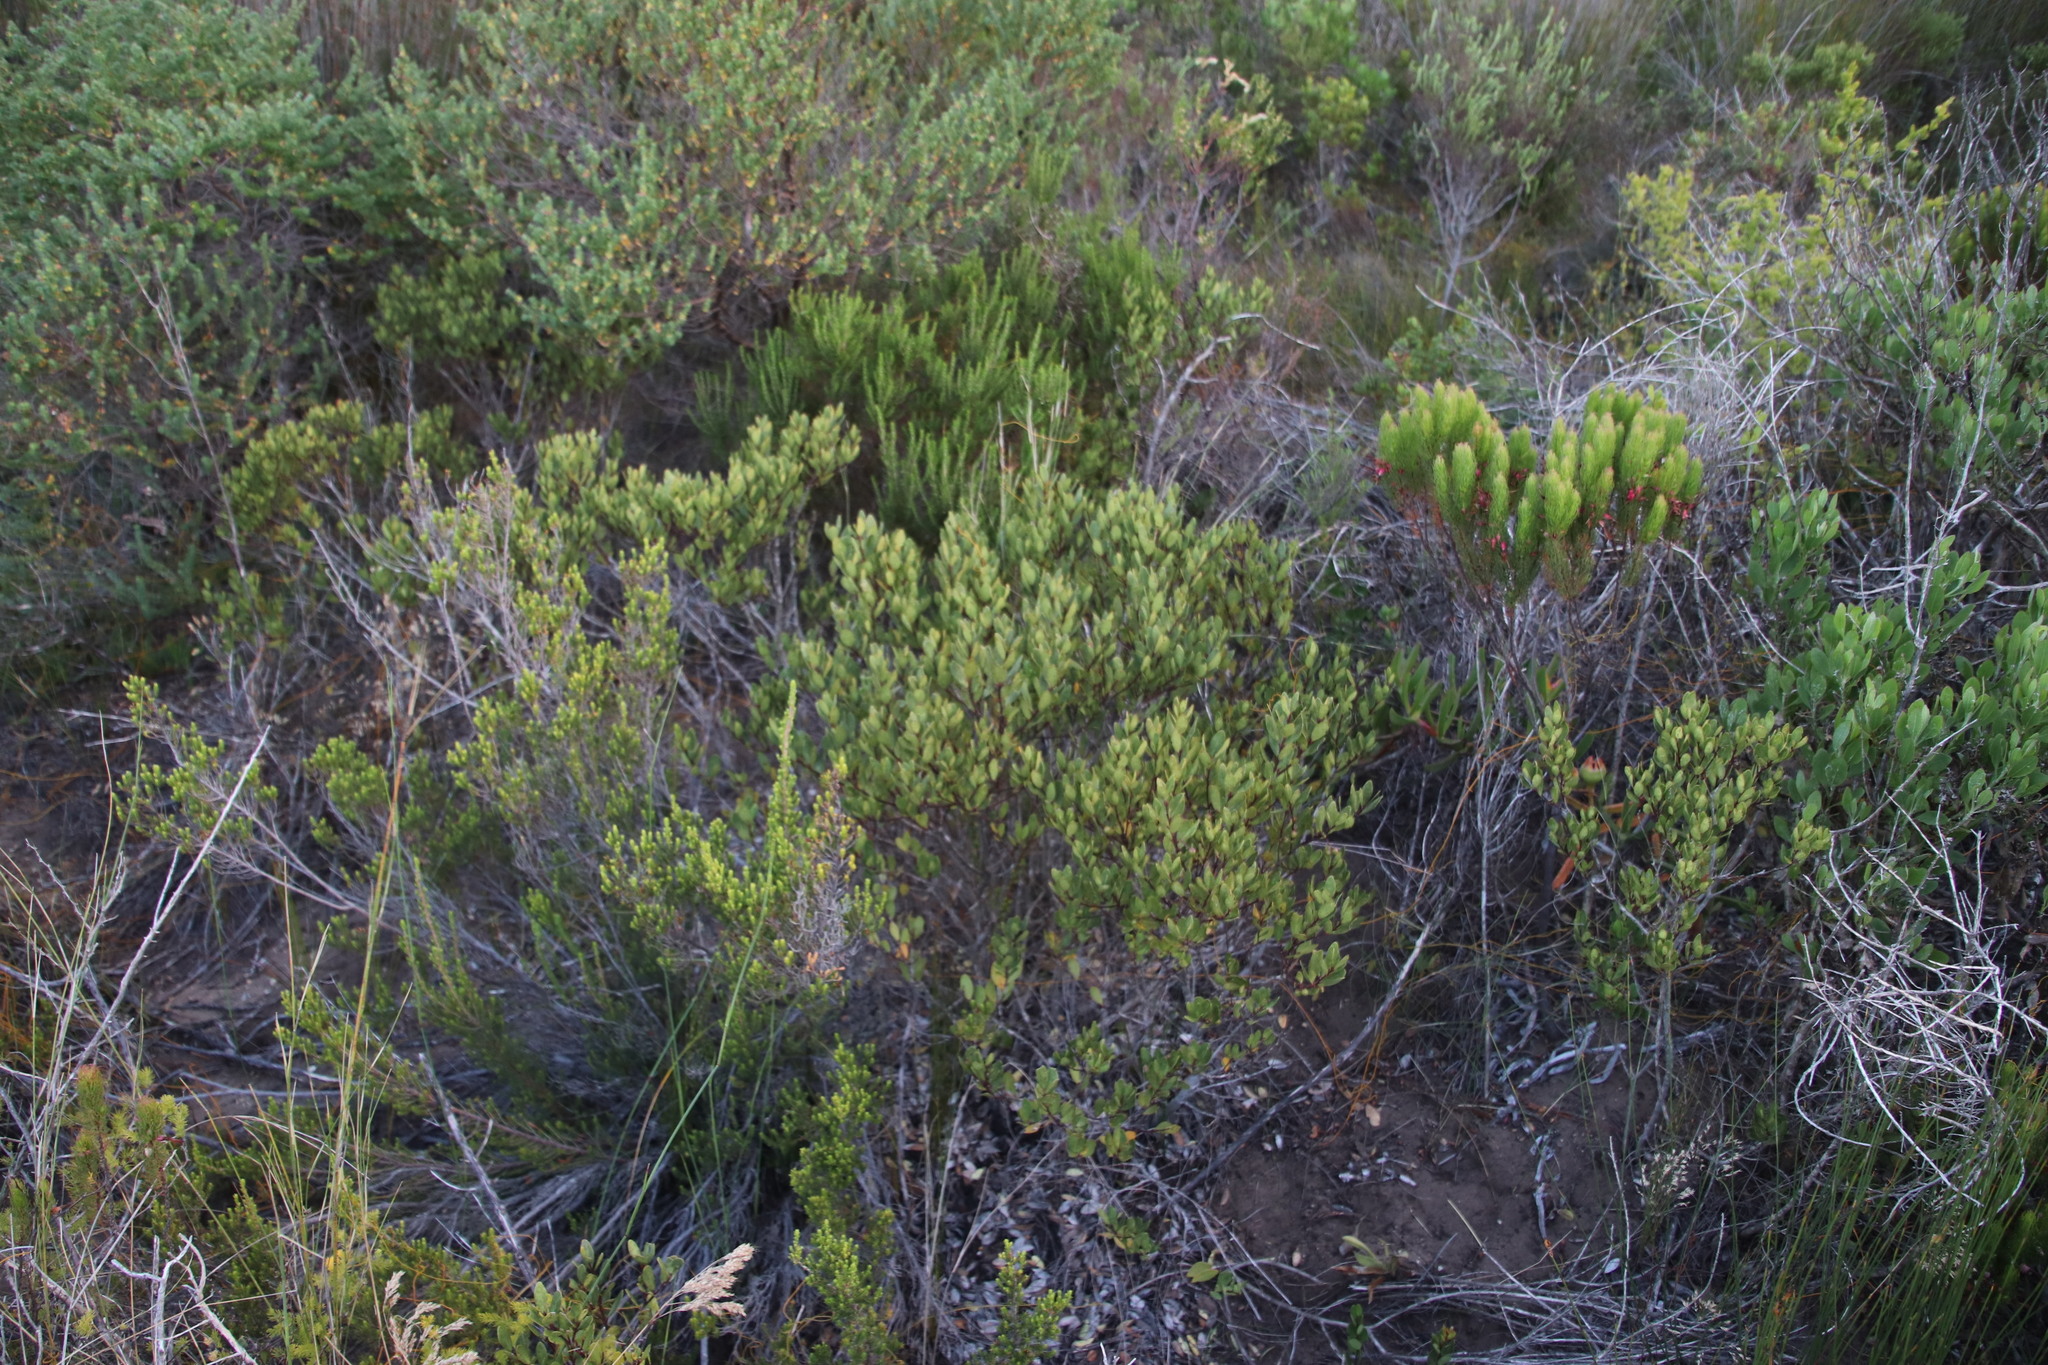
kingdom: Plantae
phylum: Tracheophyta
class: Magnoliopsida
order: Ericales
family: Ebenaceae
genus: Euclea
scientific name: Euclea racemosa
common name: Dune guarri
